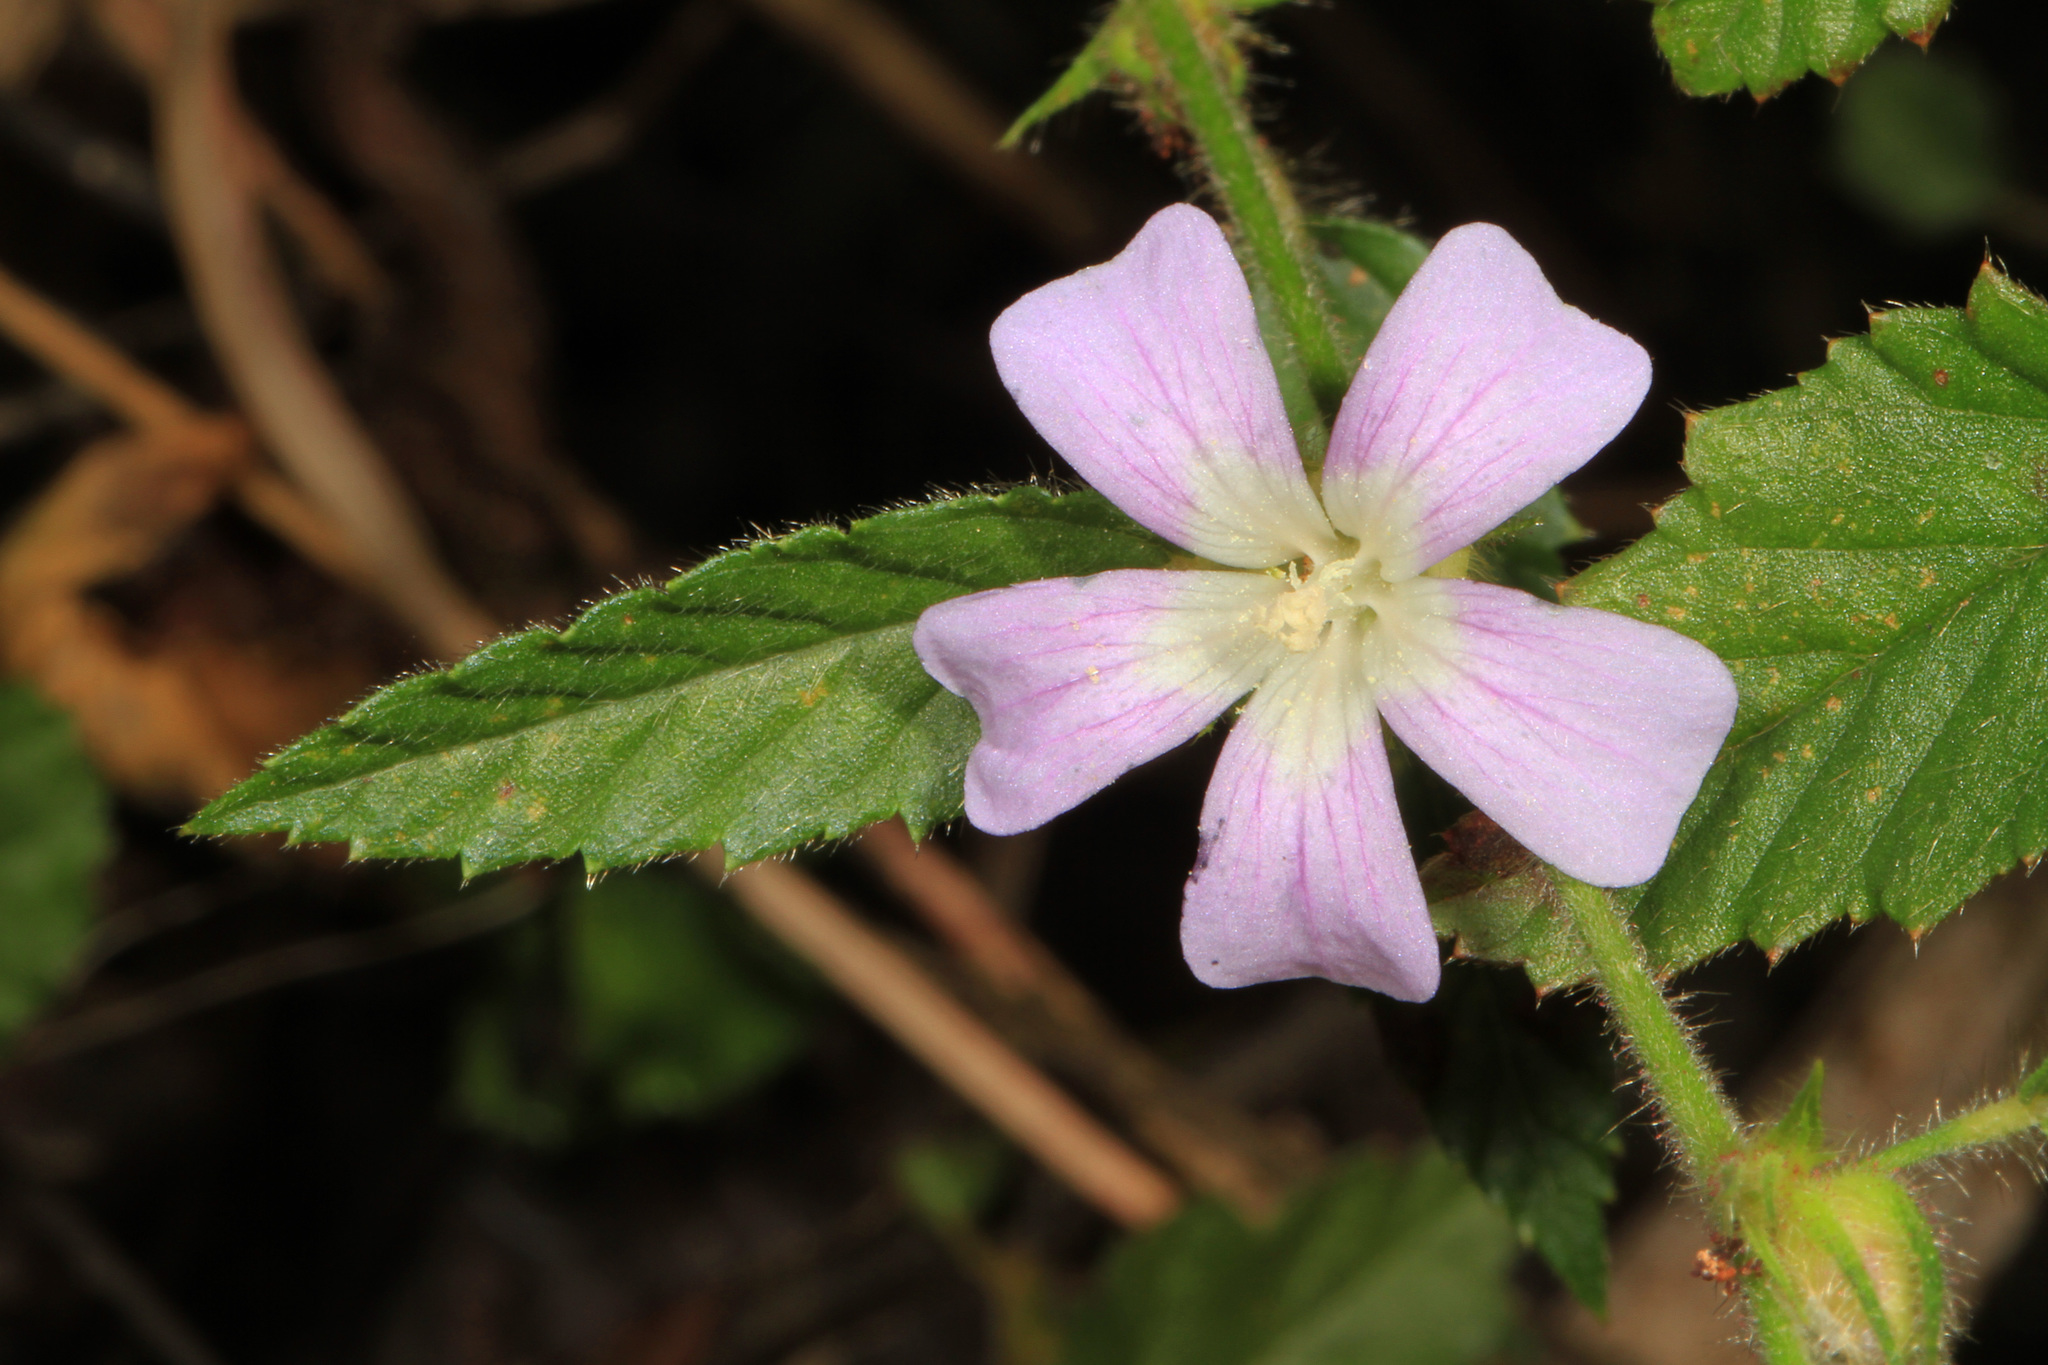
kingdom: Plantae
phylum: Tracheophyta
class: Magnoliopsida
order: Malvales
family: Malvaceae
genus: Melochia
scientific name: Melochia spicata
